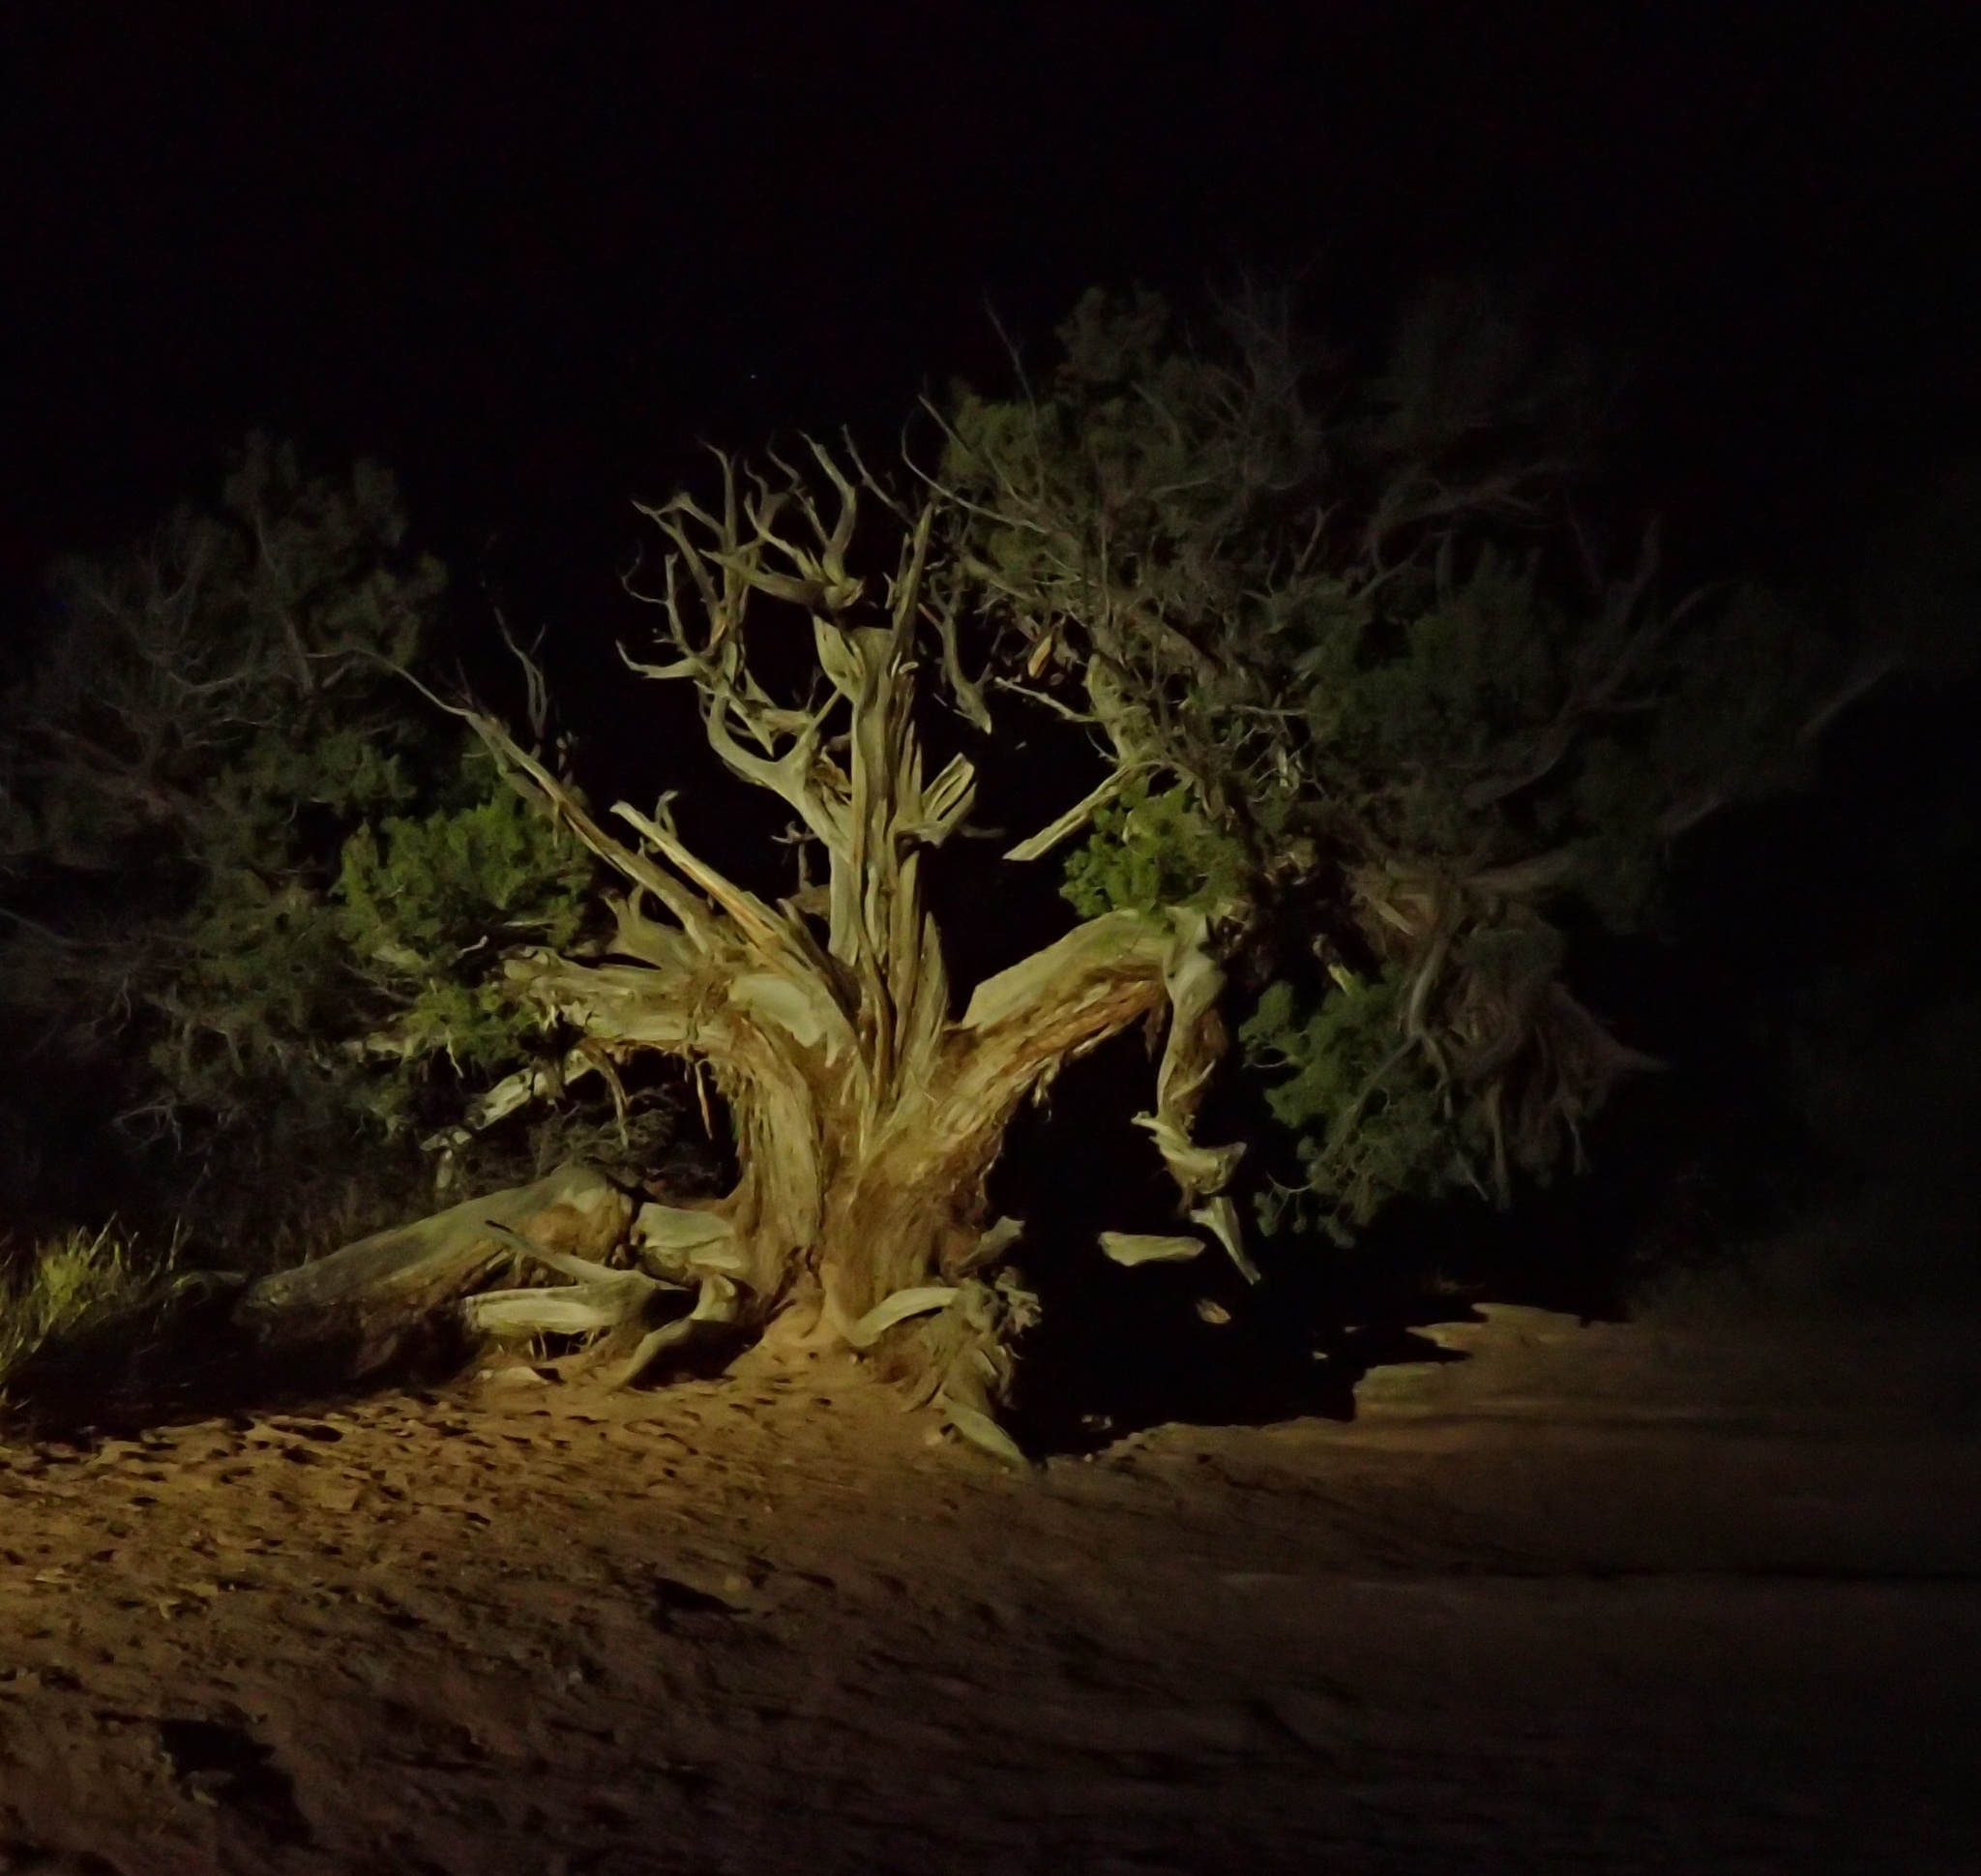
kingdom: Plantae
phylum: Tracheophyta
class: Pinopsida
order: Pinales
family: Cupressaceae
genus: Juniperus
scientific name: Juniperus osteosperma
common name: Utah juniper
